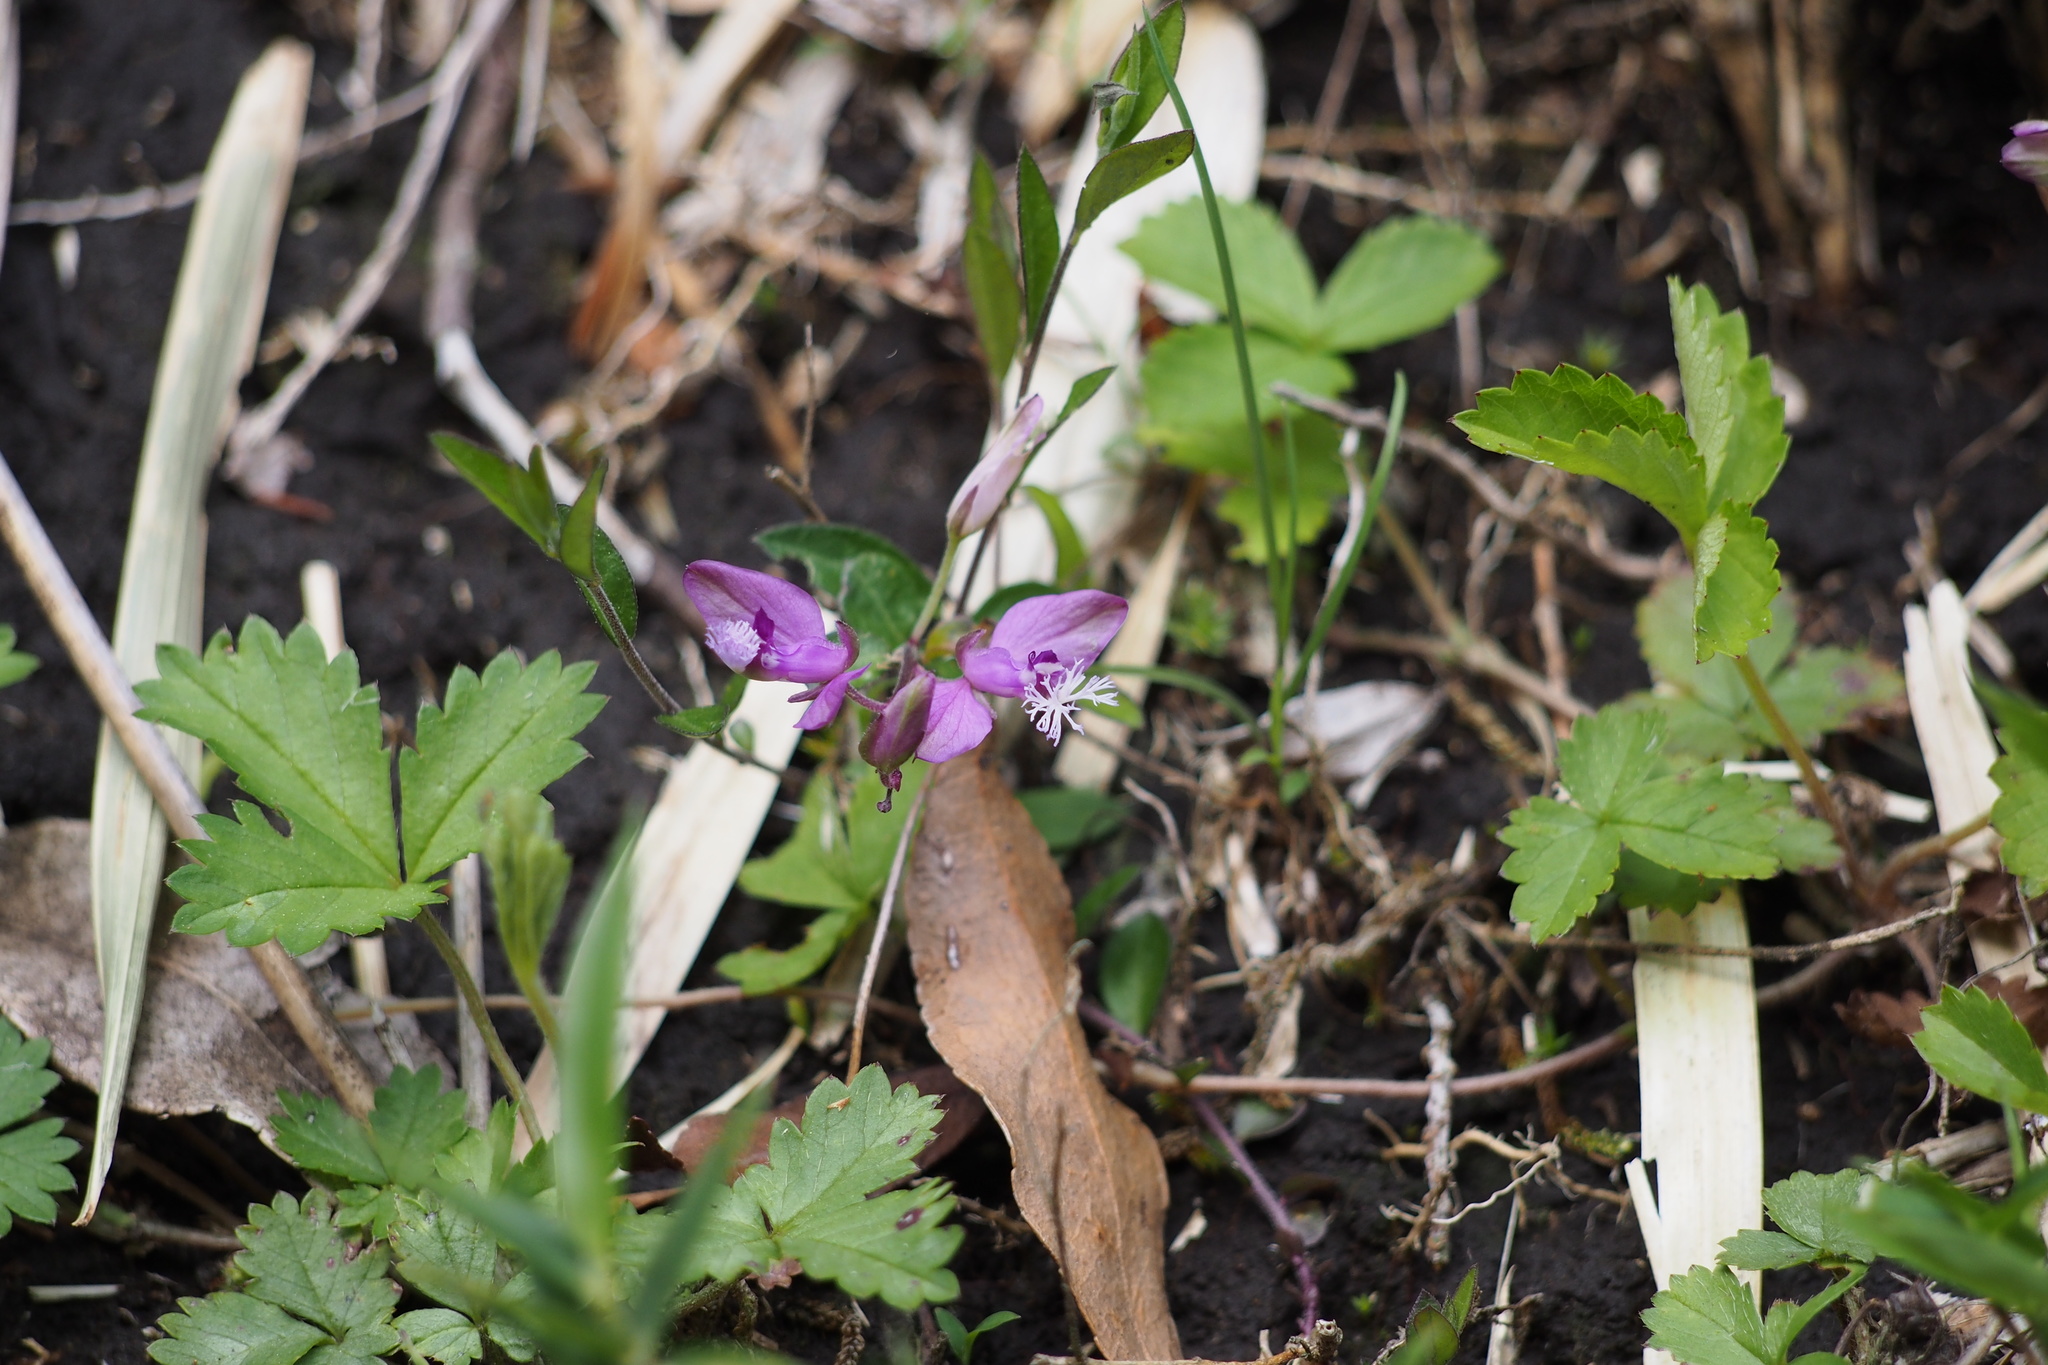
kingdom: Plantae
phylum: Tracheophyta
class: Magnoliopsida
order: Fabales
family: Polygalaceae
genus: Polygala
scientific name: Polygala japonica
